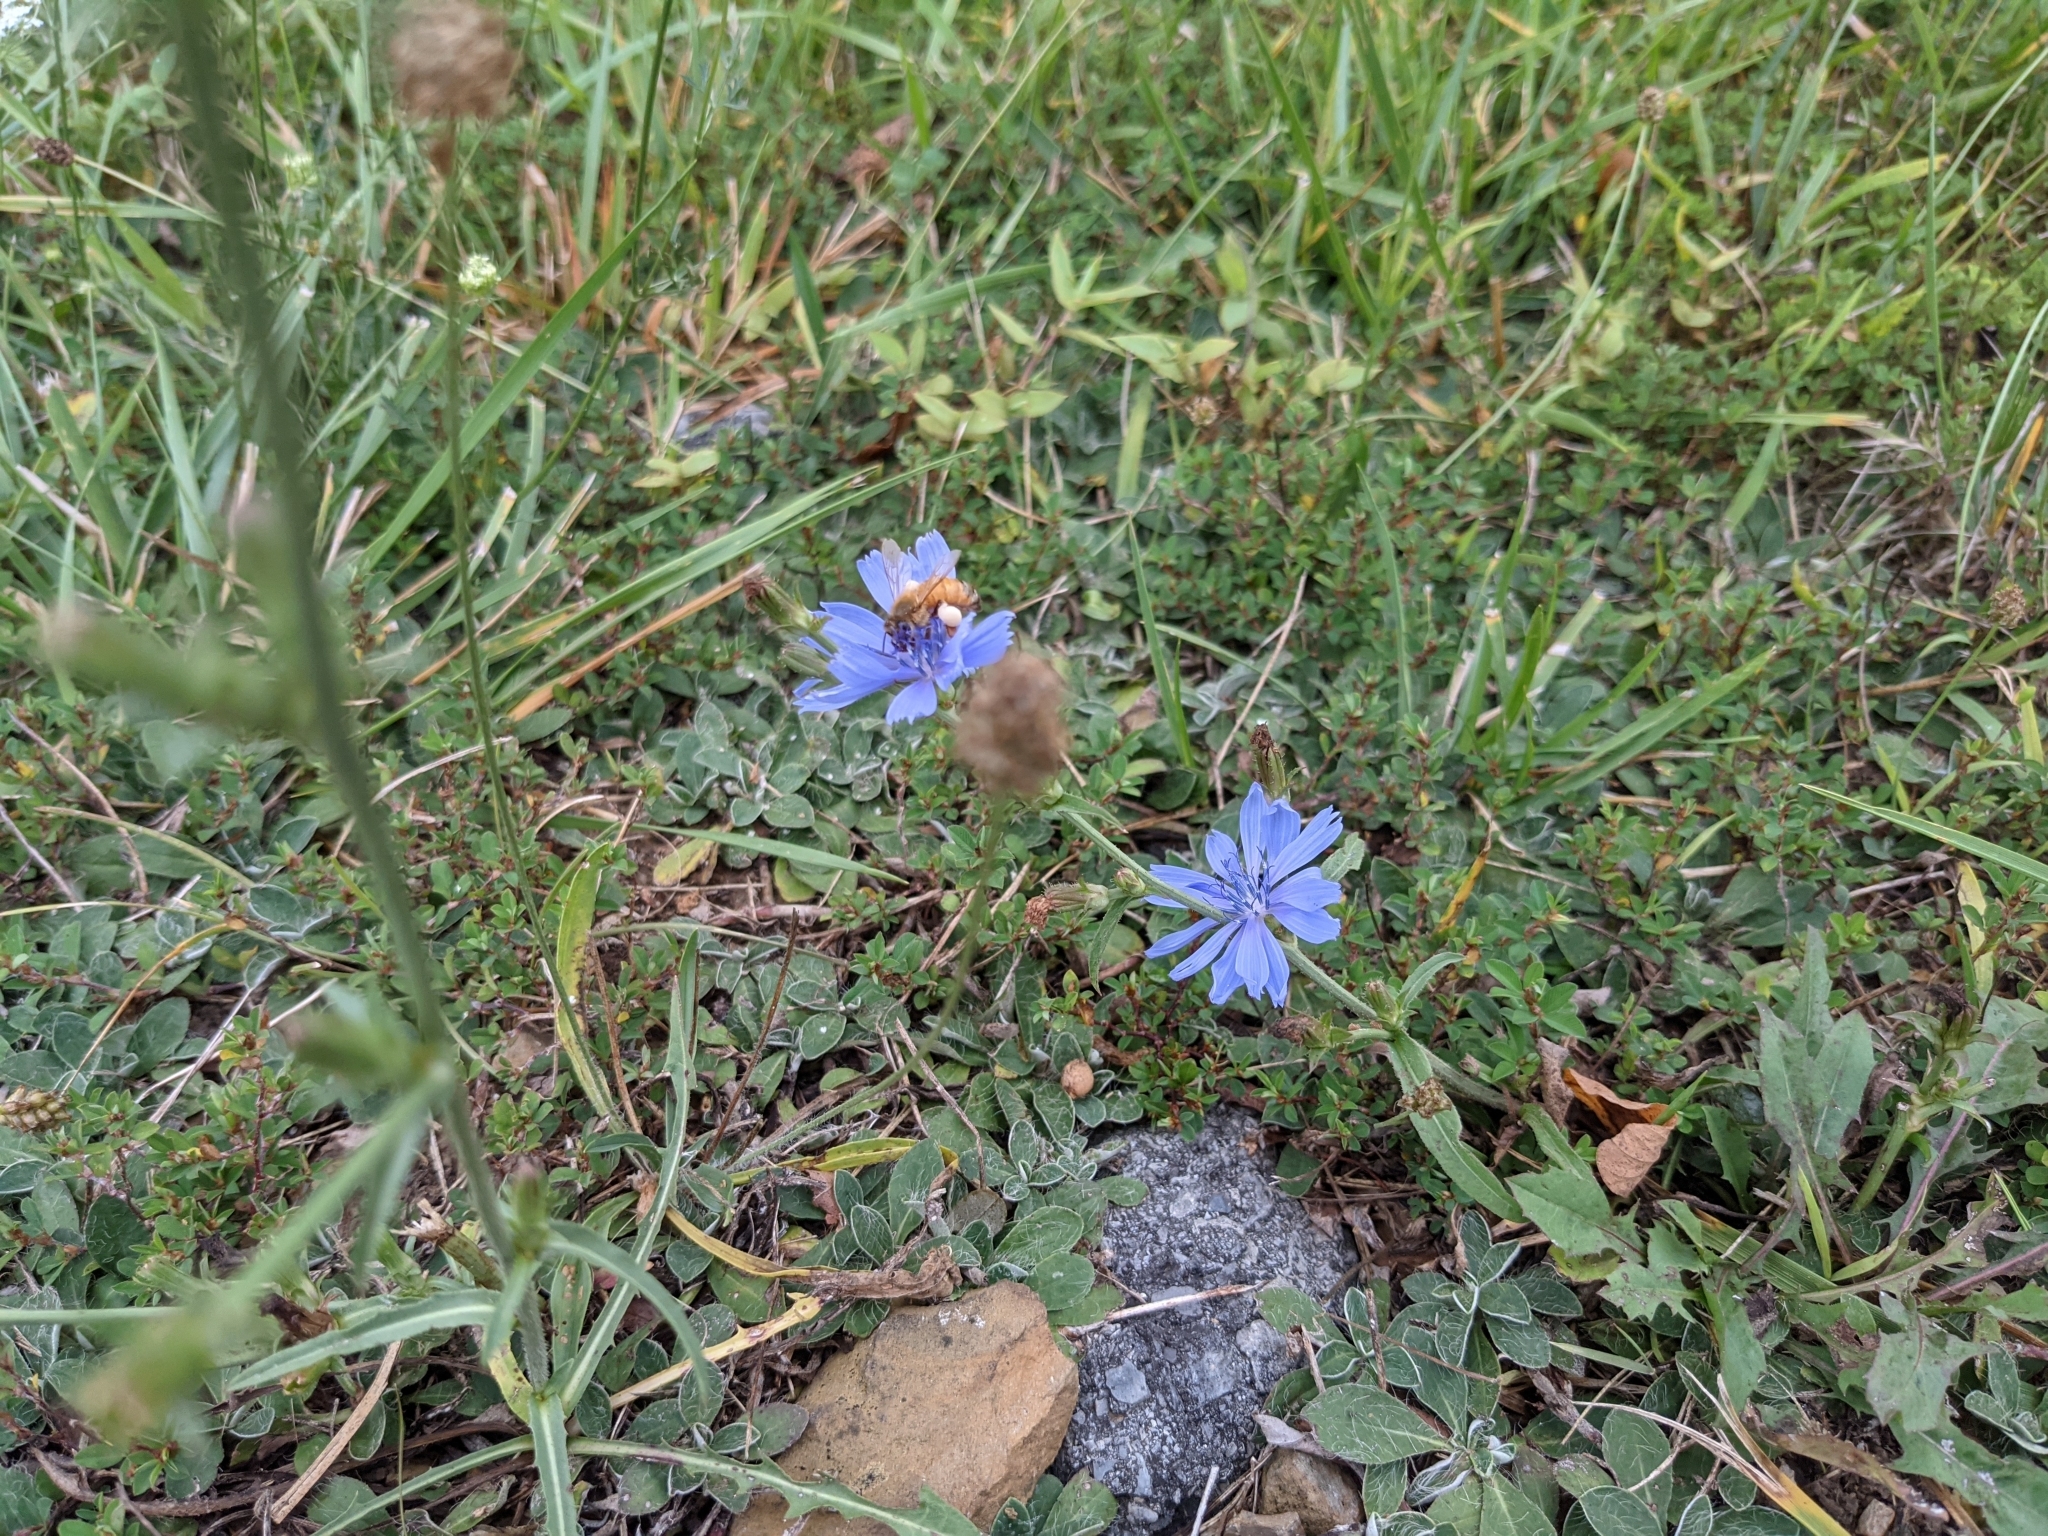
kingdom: Animalia
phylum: Arthropoda
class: Insecta
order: Hymenoptera
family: Apidae
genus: Apis
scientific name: Apis mellifera
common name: Honey bee
